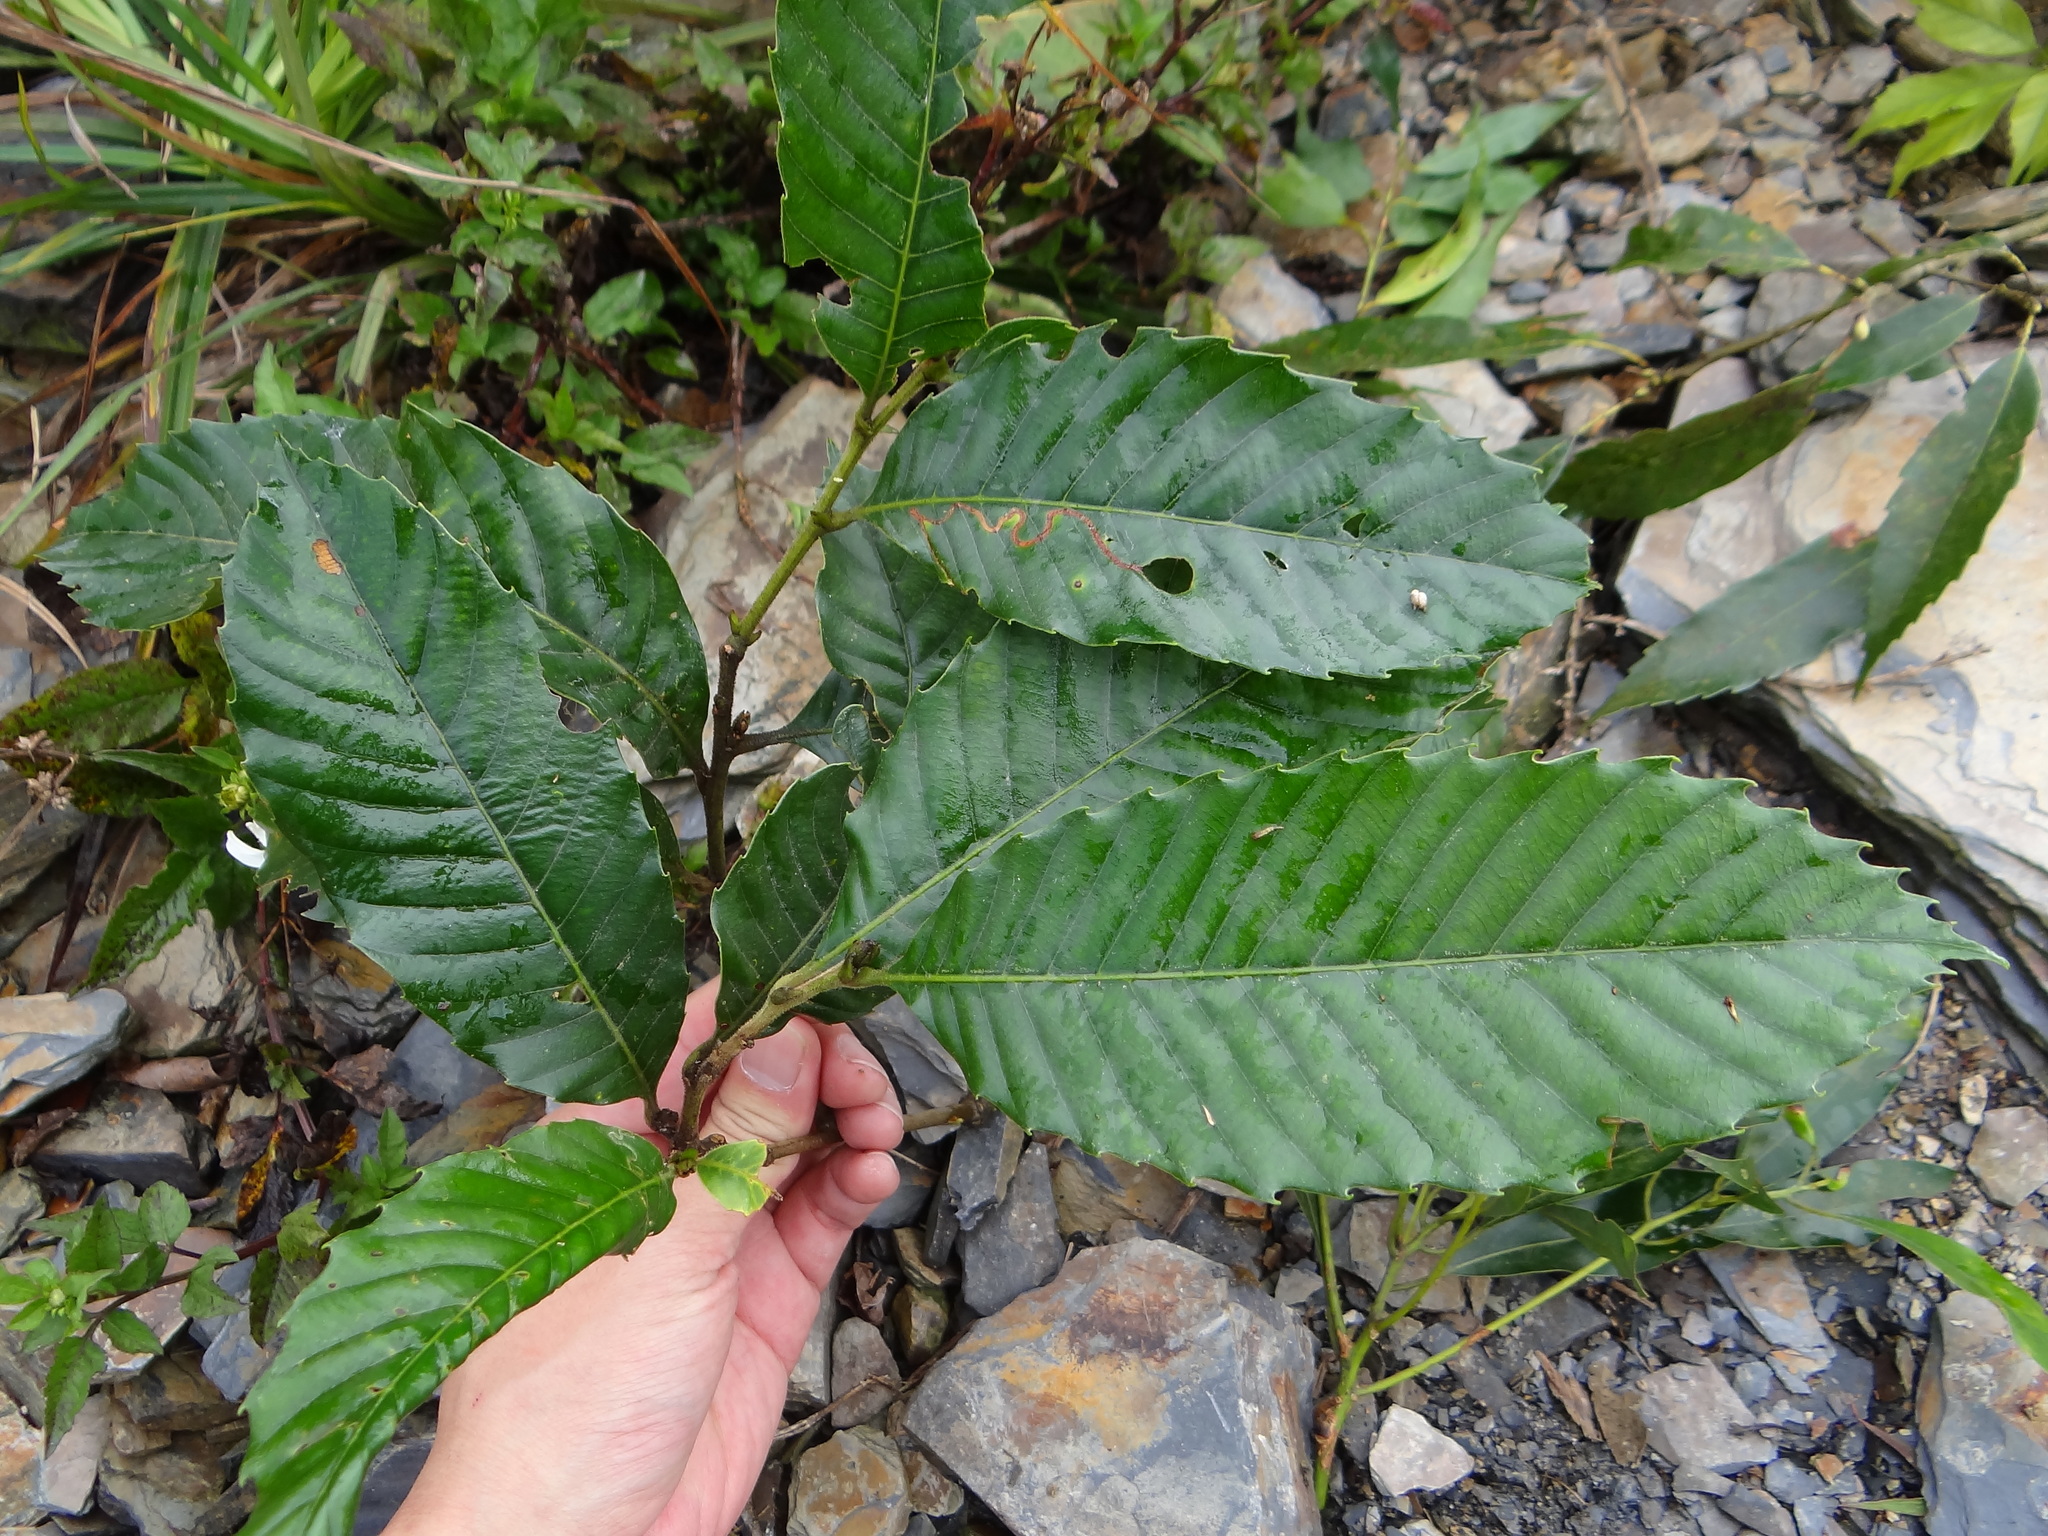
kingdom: Plantae
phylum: Tracheophyta
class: Magnoliopsida
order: Fagales
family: Fagaceae
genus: Castanopsis
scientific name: Castanopsis indica
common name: Indian-chestnut
